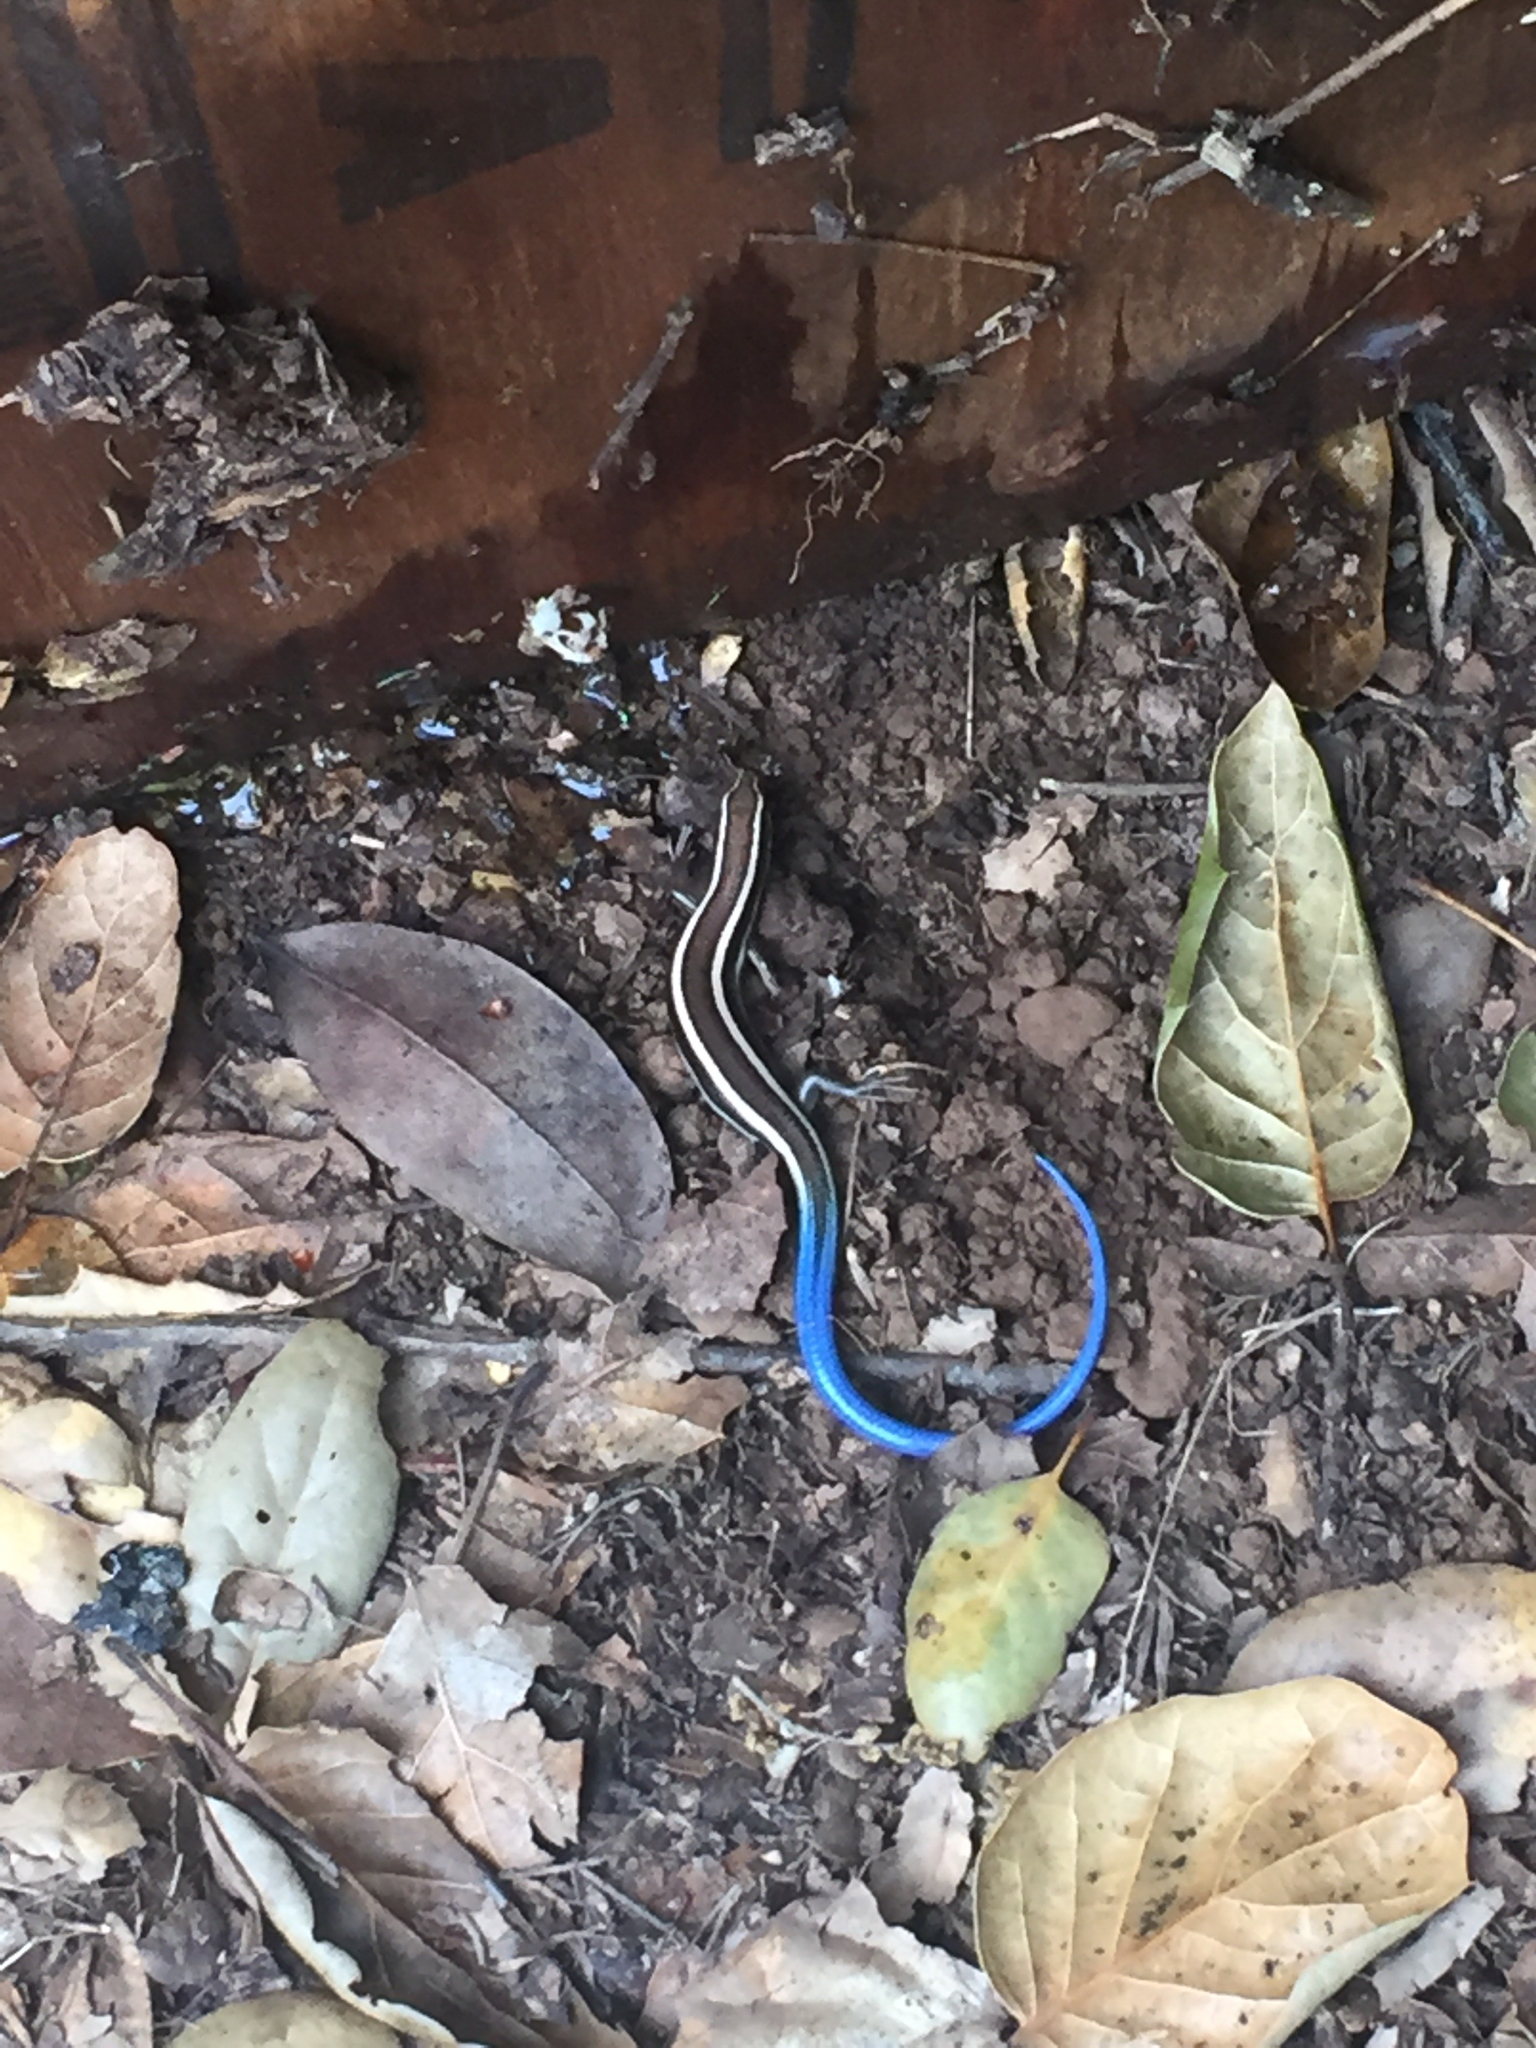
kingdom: Animalia
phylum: Chordata
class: Squamata
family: Scincidae
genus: Plestiodon
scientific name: Plestiodon skiltonianus
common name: Coronado island skink [interparietalis]
